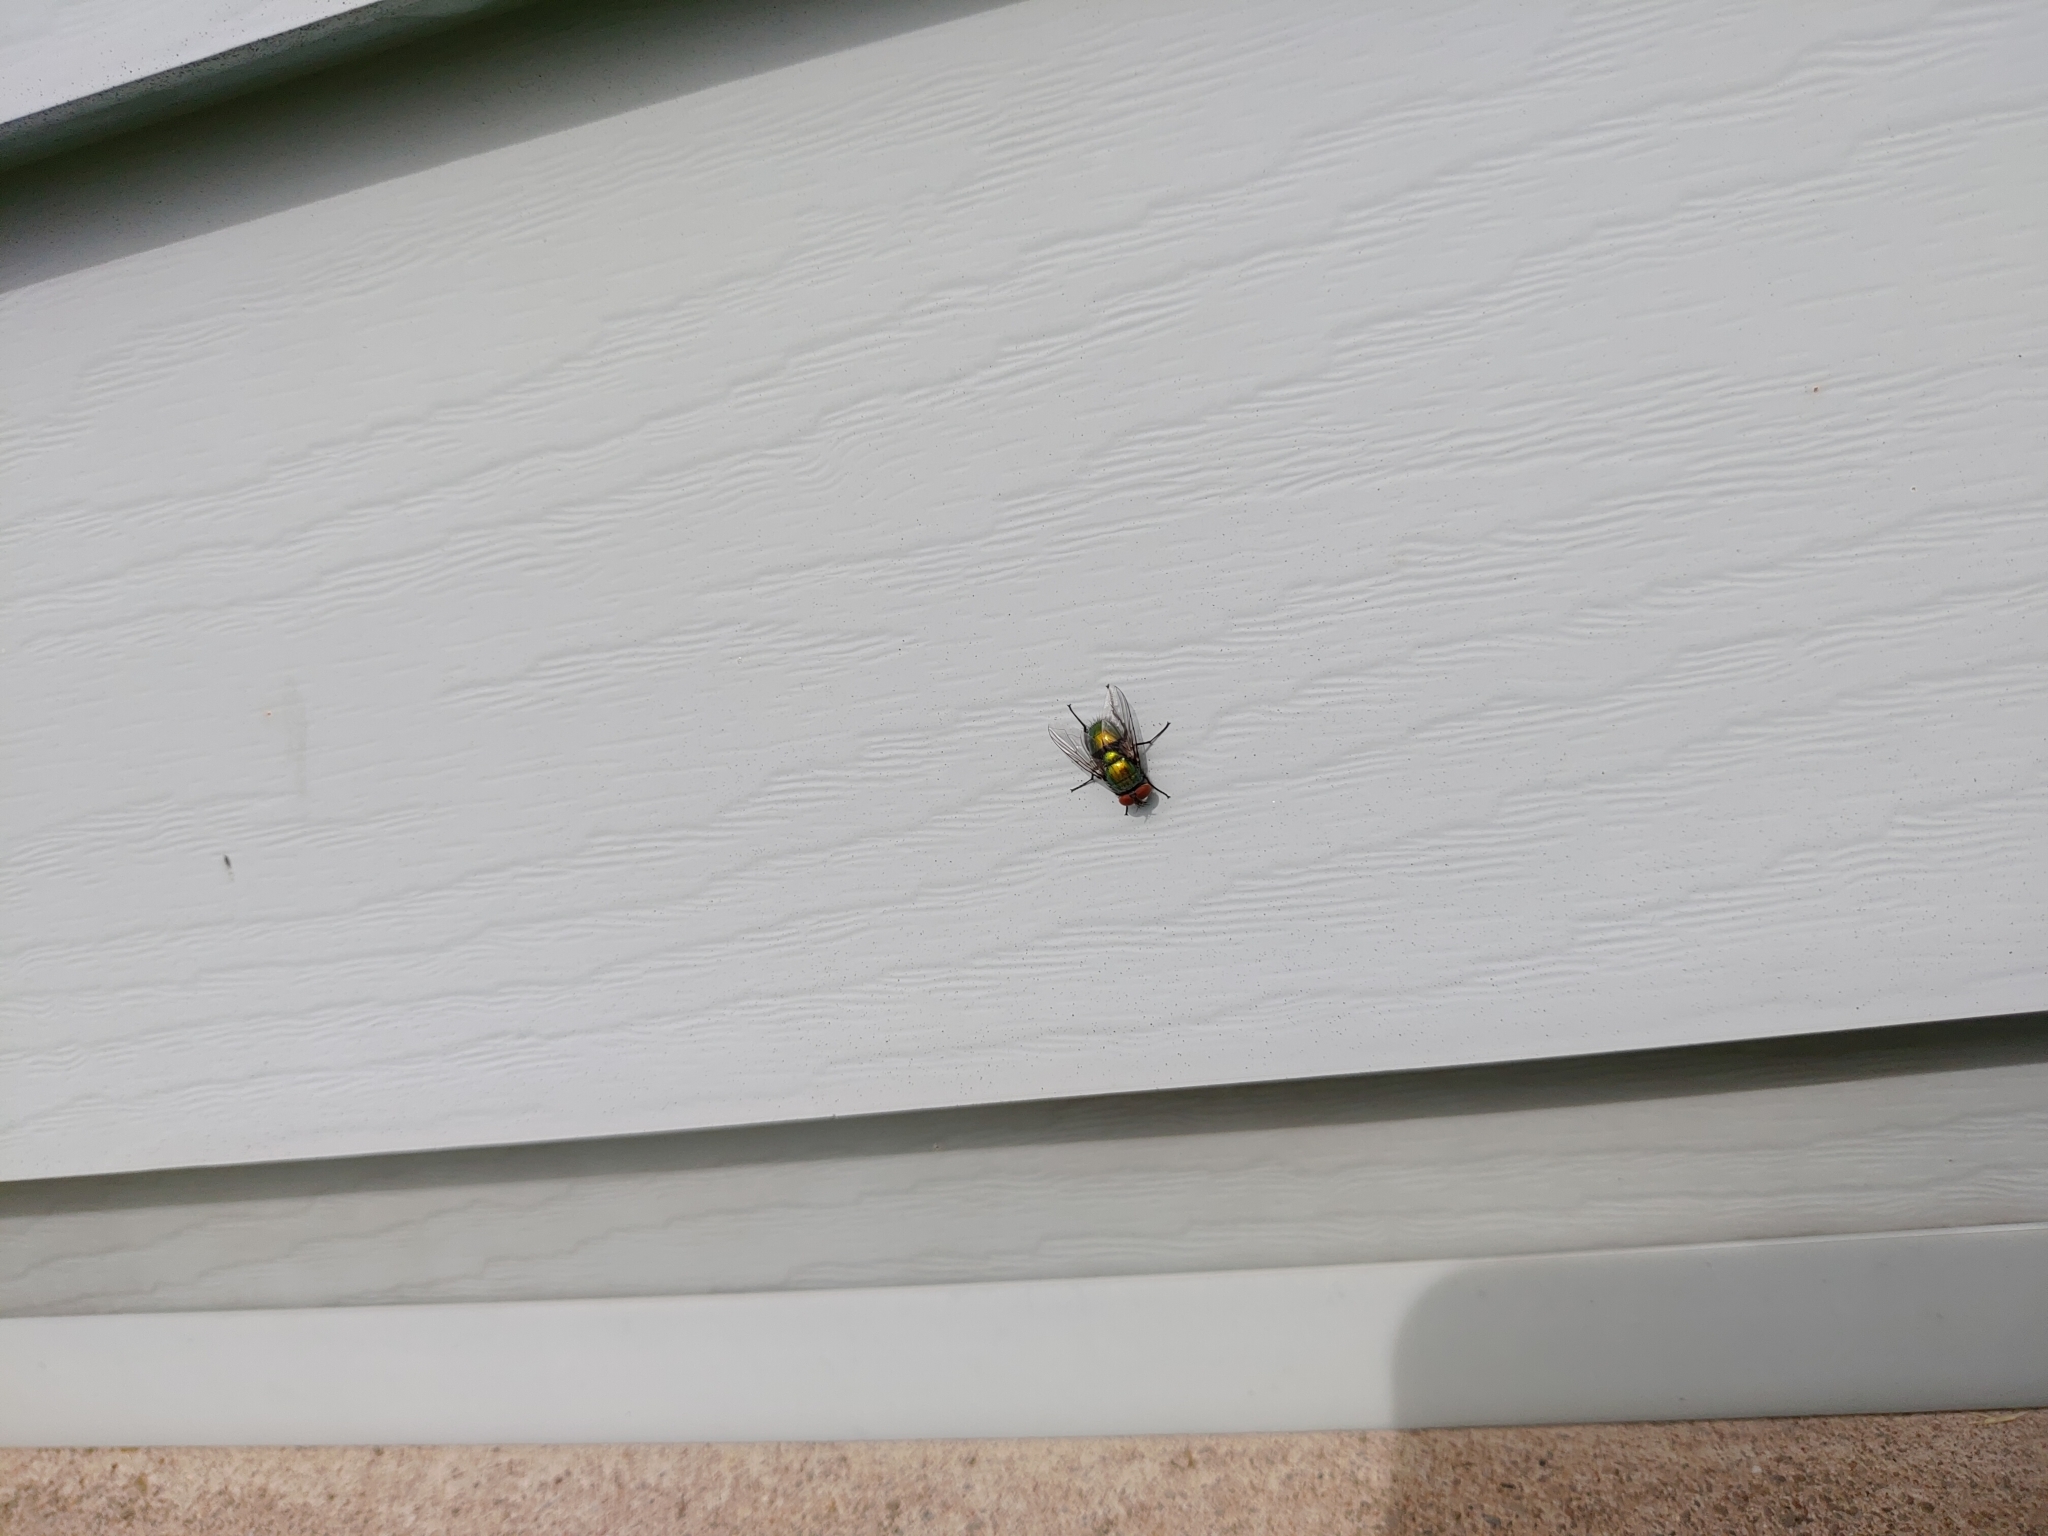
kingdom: Animalia
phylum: Arthropoda
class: Insecta
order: Diptera
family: Calliphoridae
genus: Lucilia
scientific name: Lucilia sericata
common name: Blow fly
